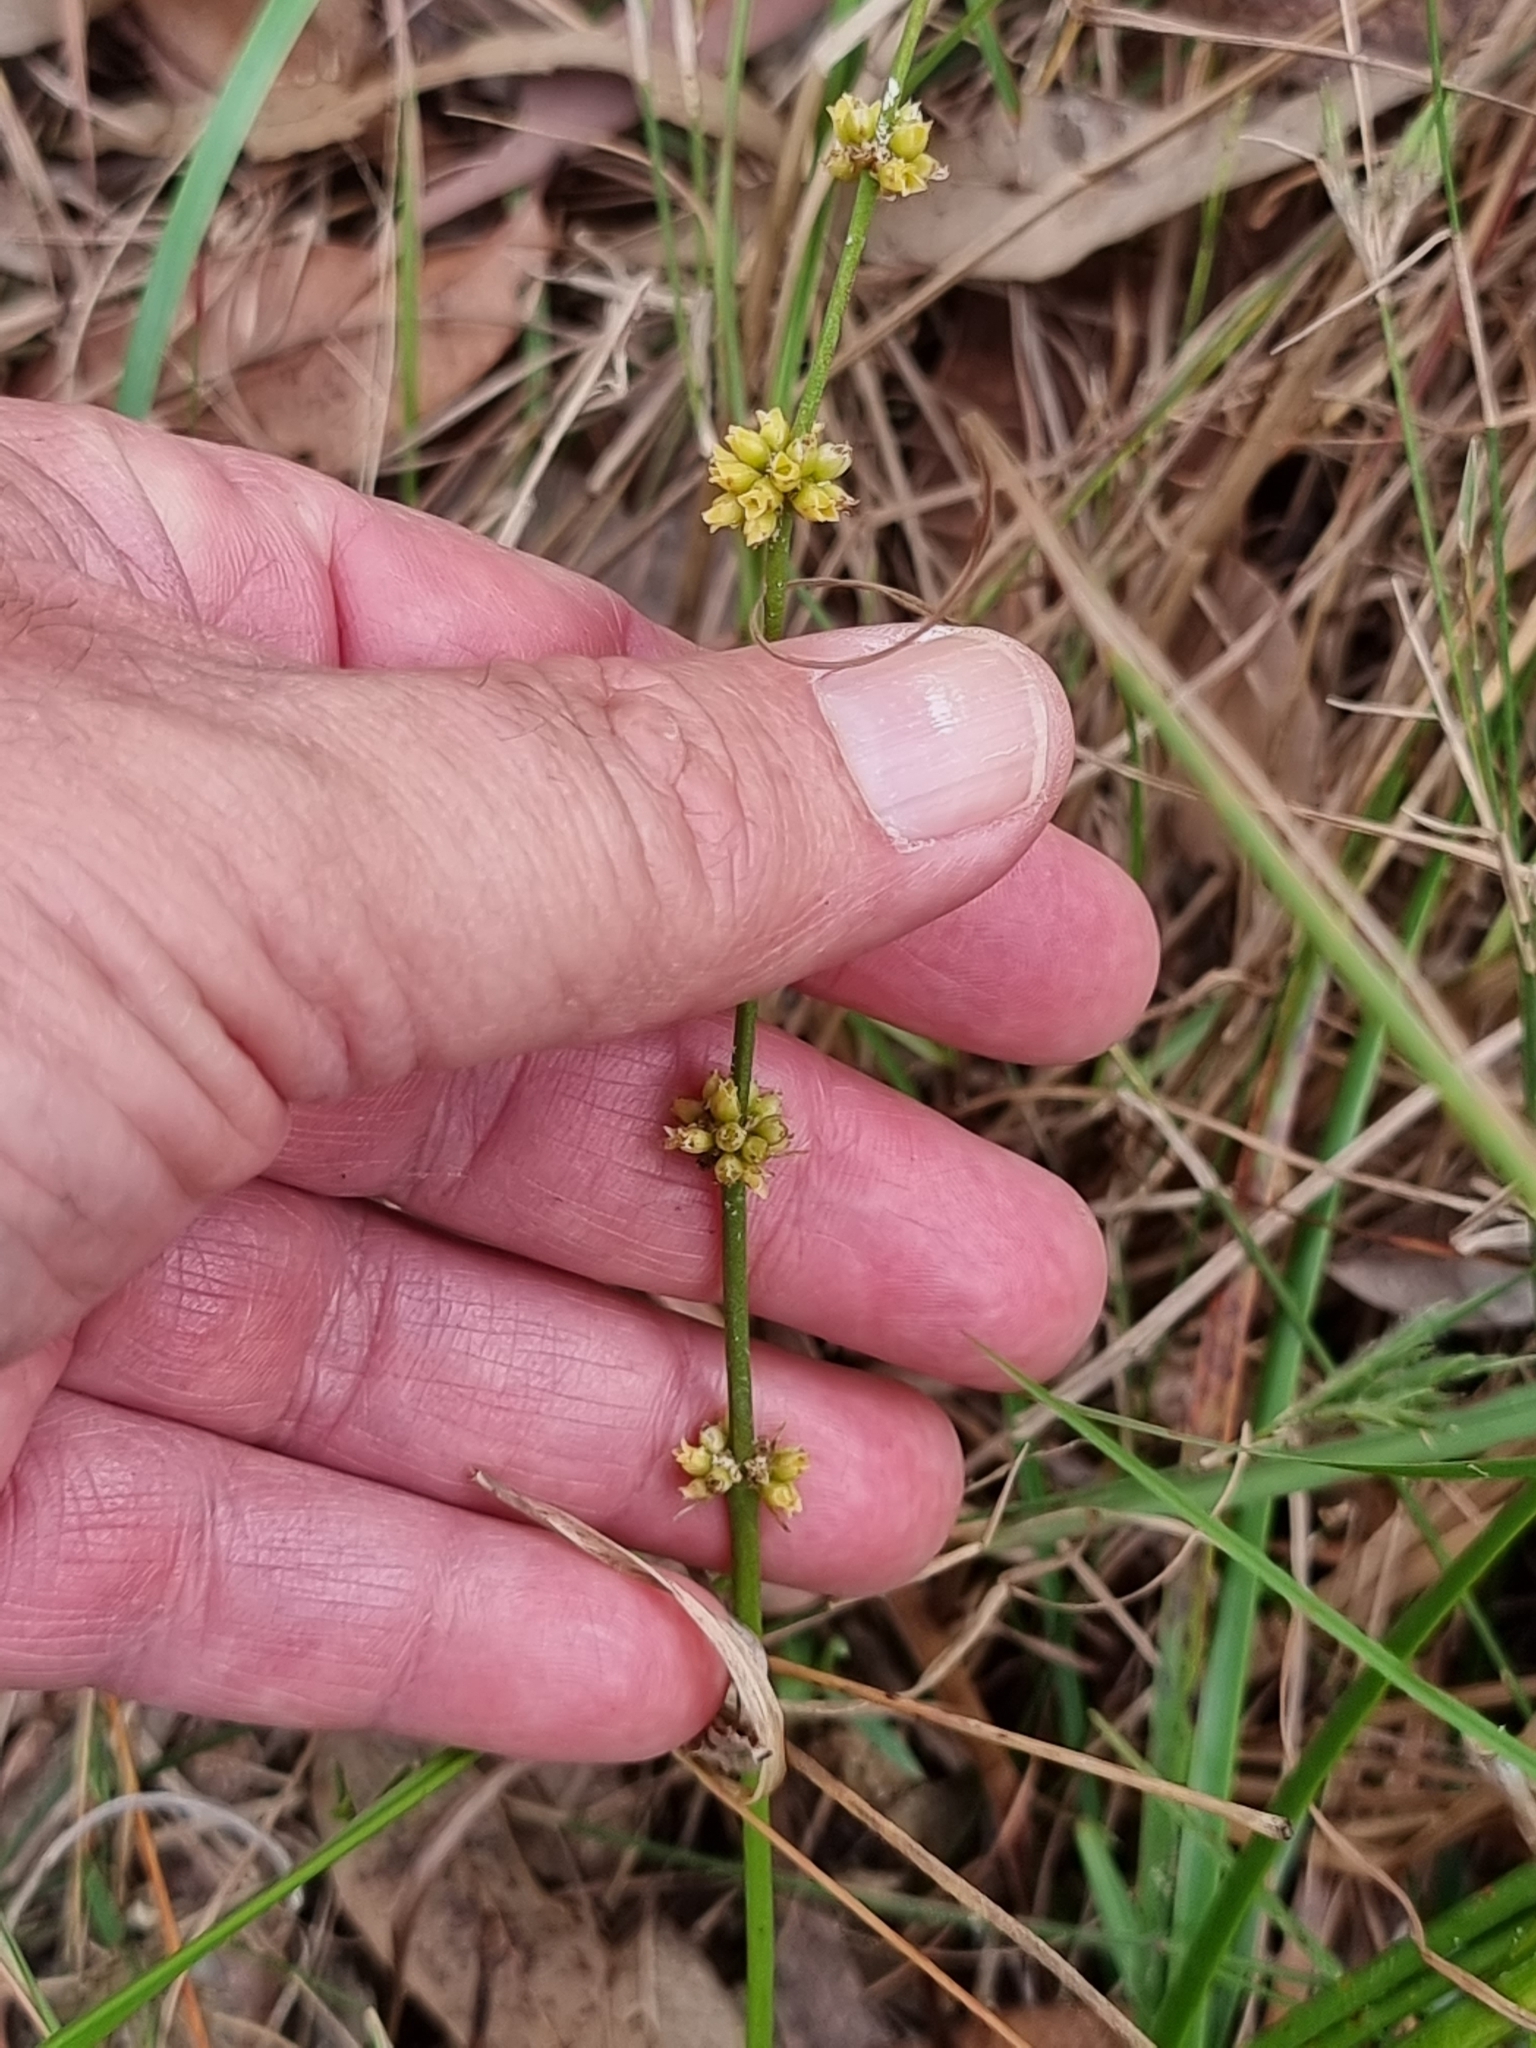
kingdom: Plantae
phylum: Tracheophyta
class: Liliopsida
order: Asparagales
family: Asparagaceae
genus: Lomandra
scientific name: Lomandra multiflora
